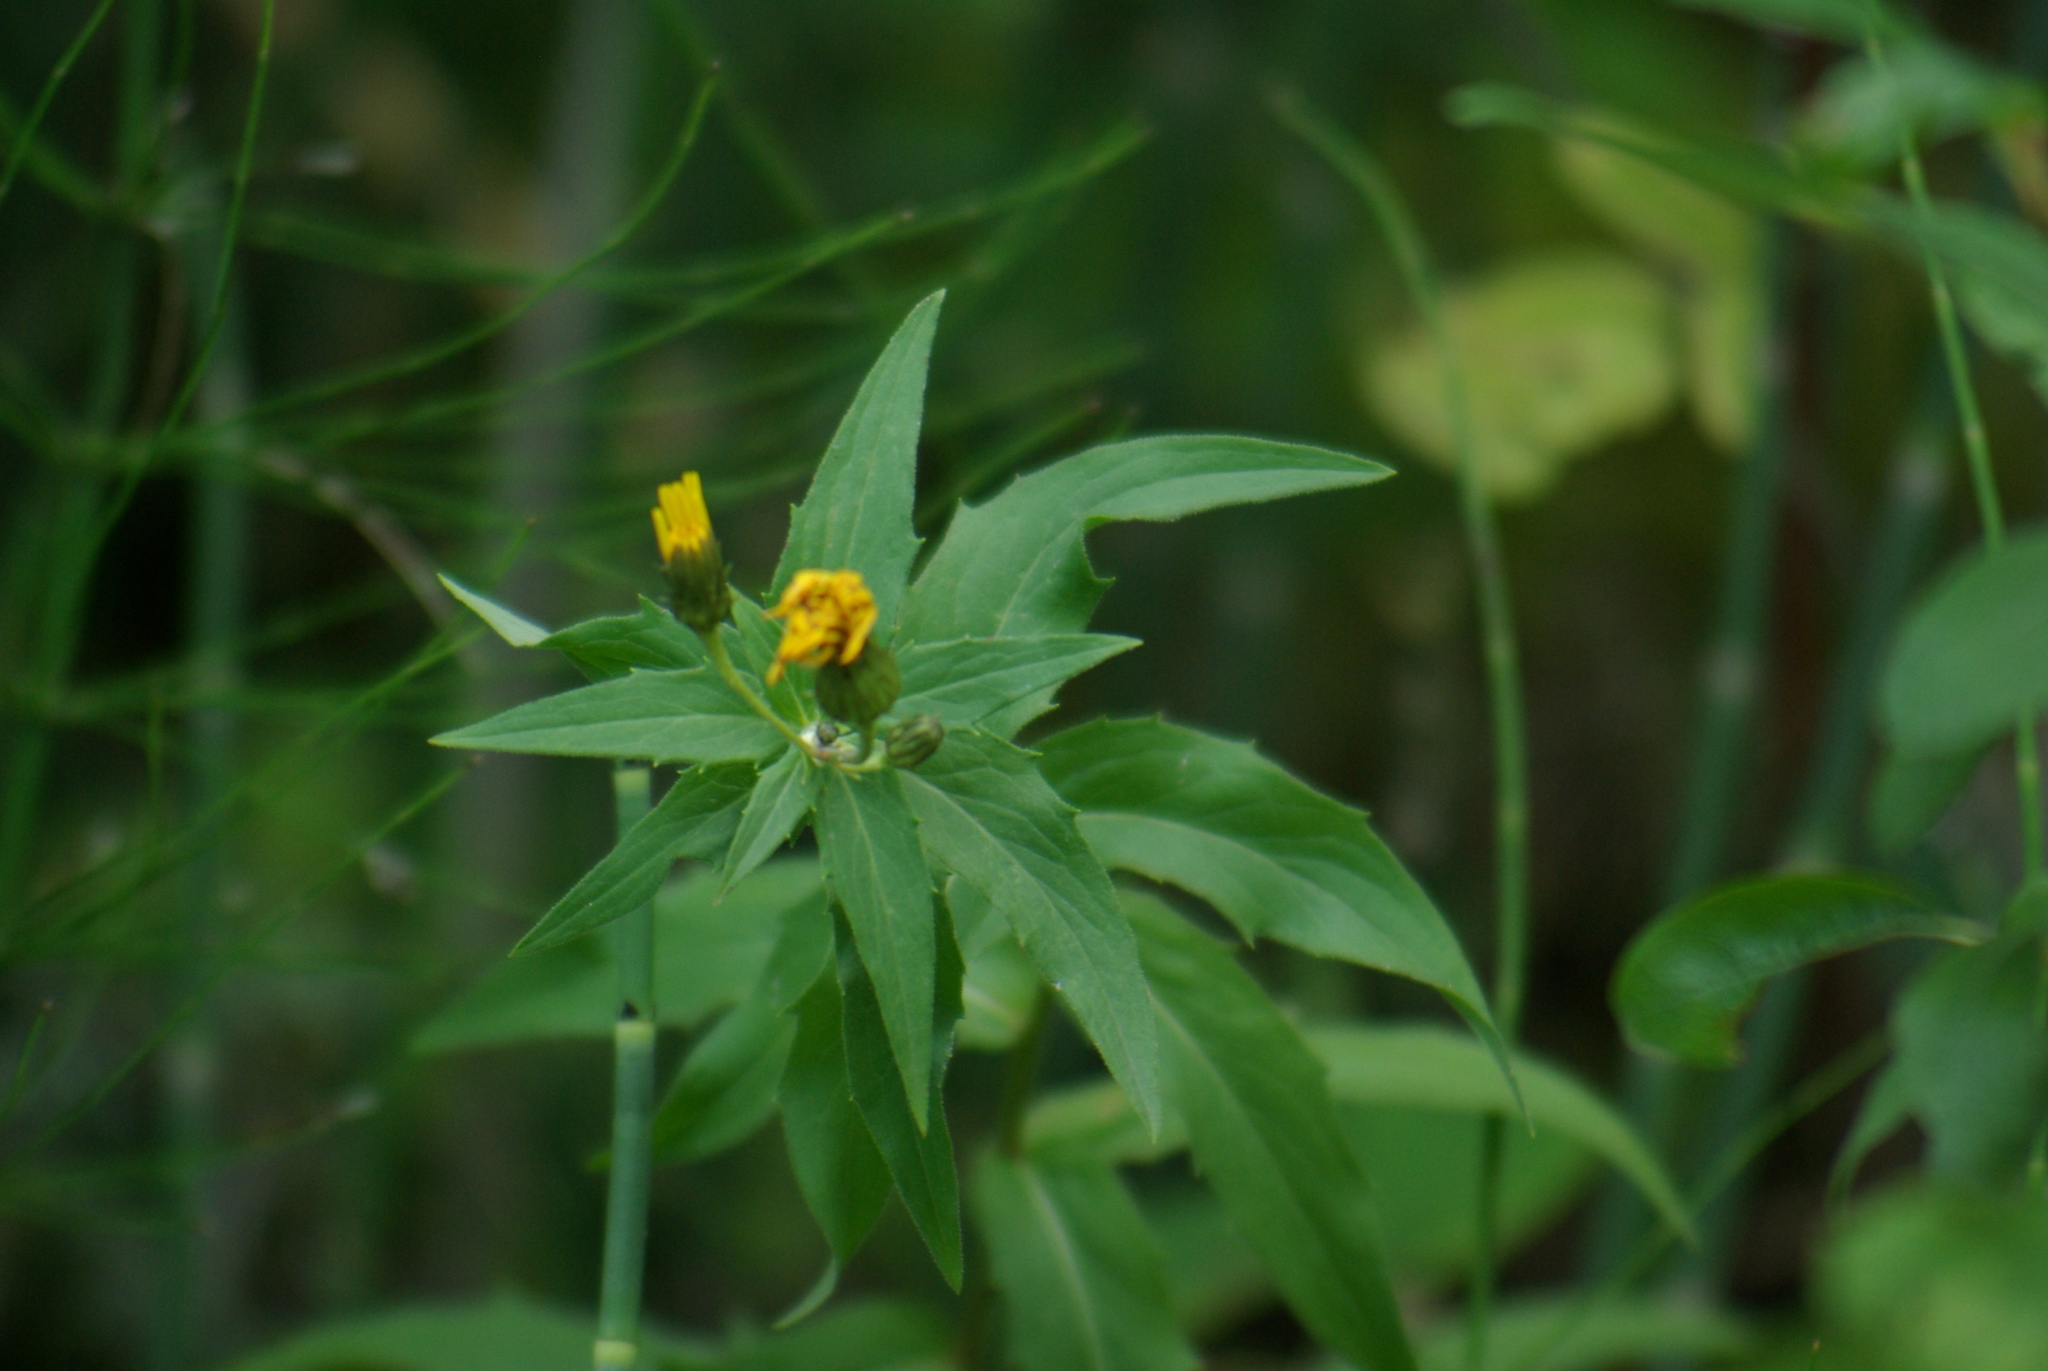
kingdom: Plantae
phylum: Tracheophyta
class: Magnoliopsida
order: Asterales
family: Asteraceae
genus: Hieracium
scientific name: Hieracium umbellatum
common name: Northern hawkweed
